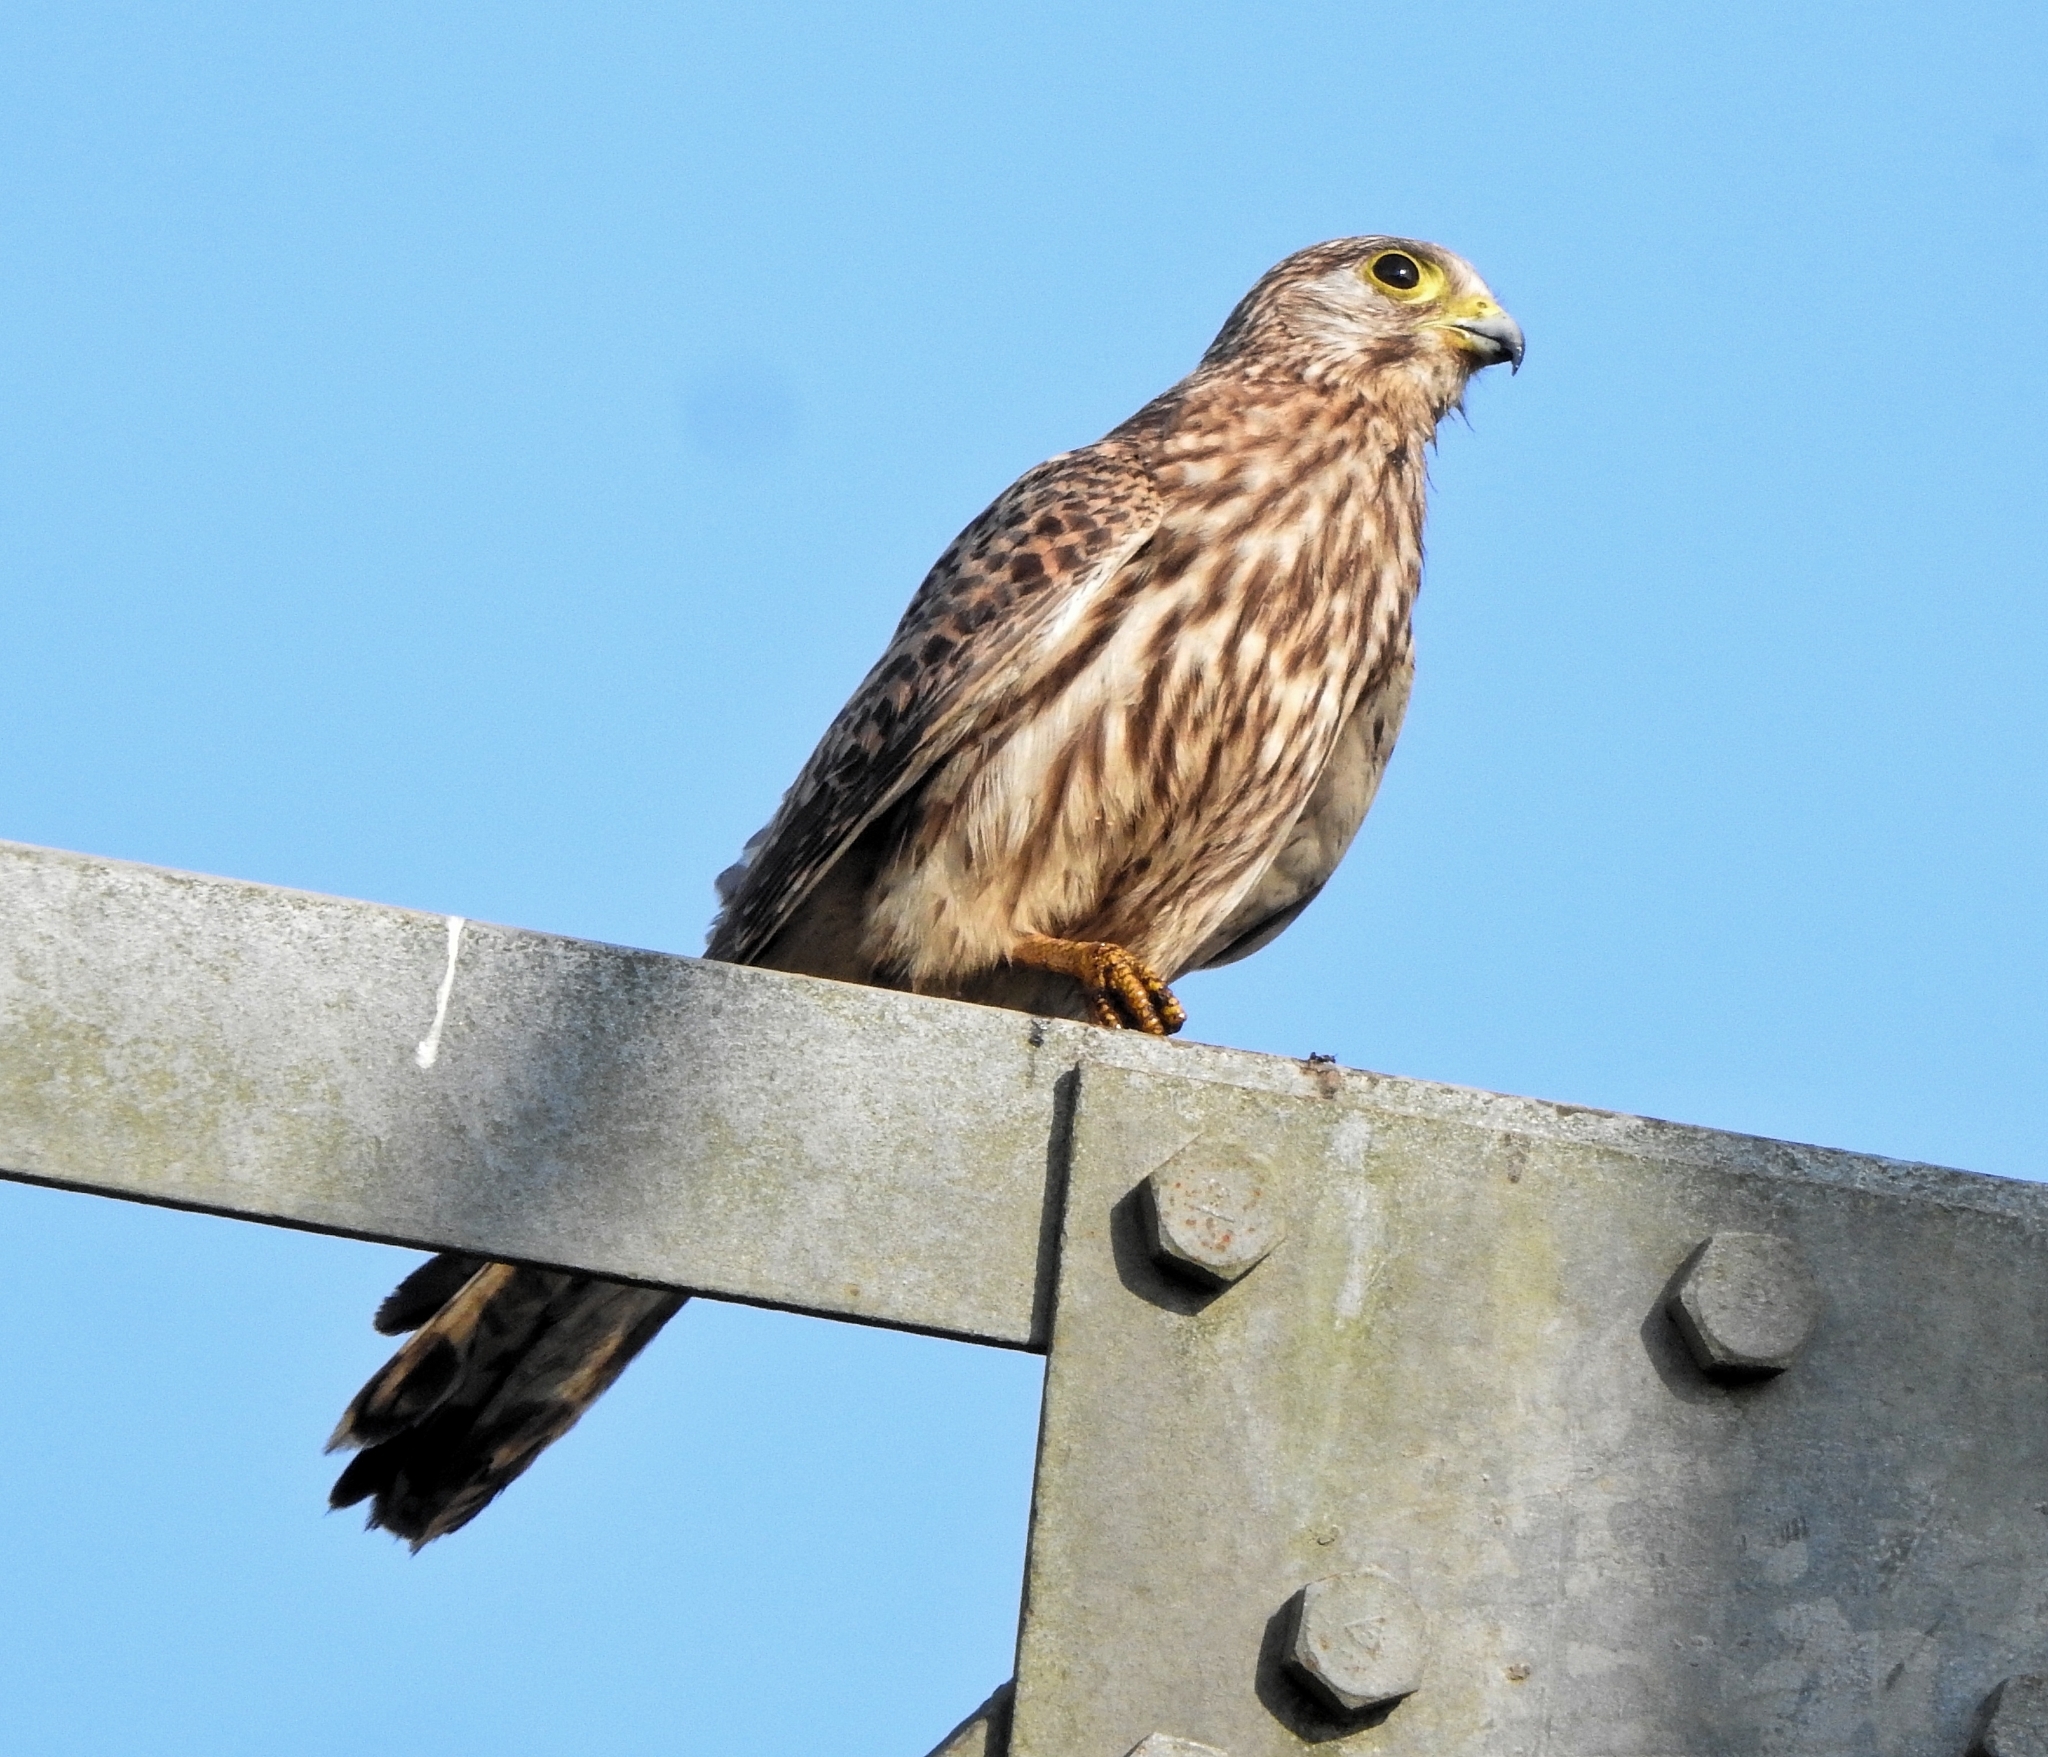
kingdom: Animalia
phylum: Chordata
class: Aves
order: Falconiformes
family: Falconidae
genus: Falco
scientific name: Falco tinnunculus
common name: Common kestrel
